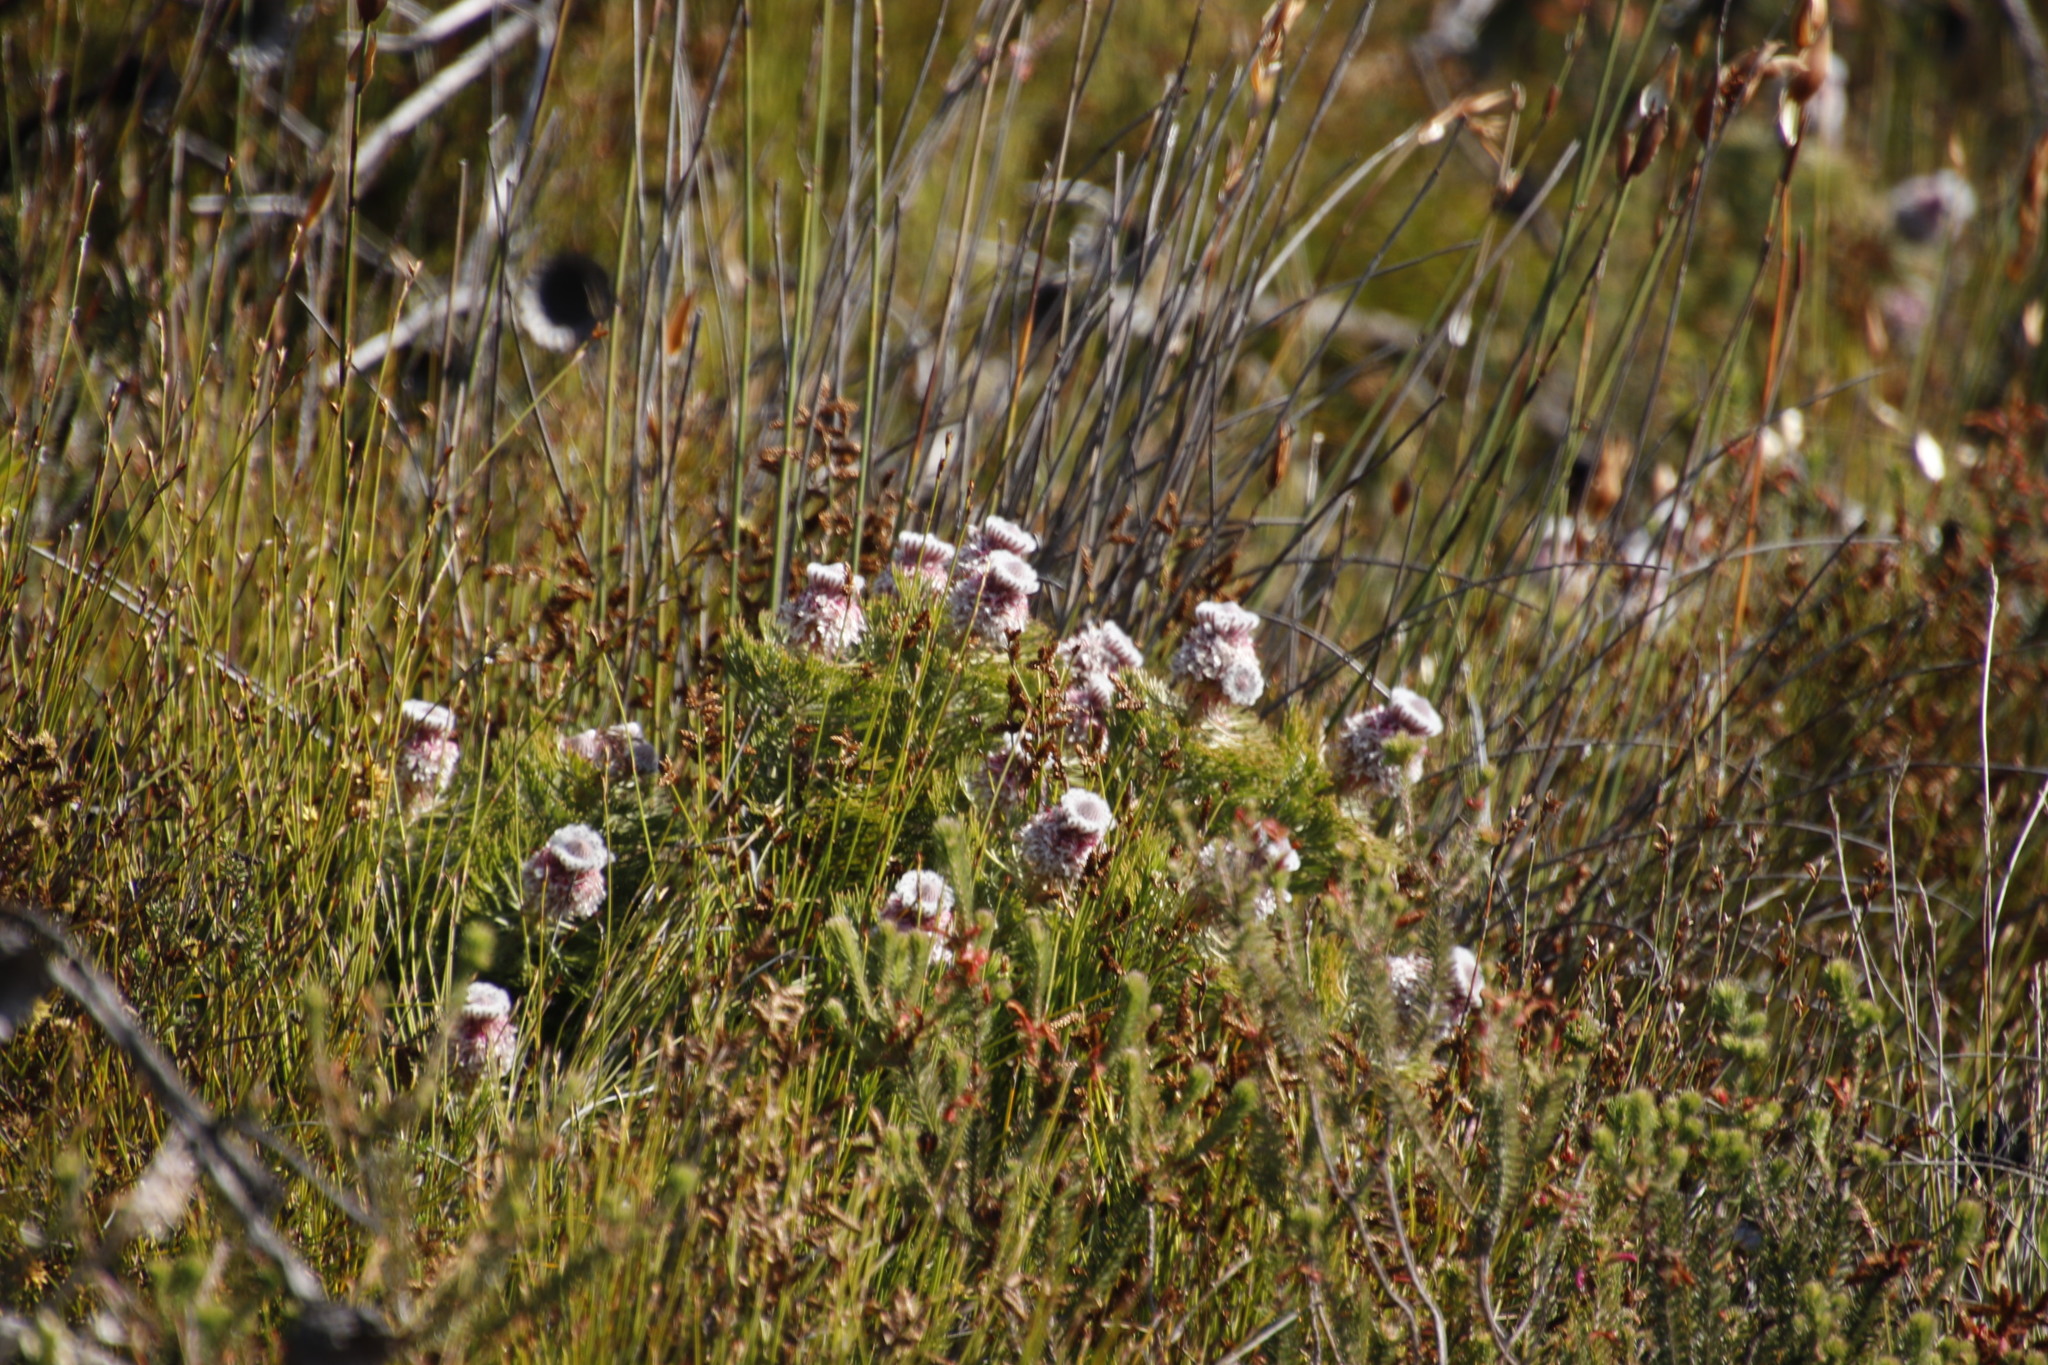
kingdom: Plantae
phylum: Tracheophyta
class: Magnoliopsida
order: Proteales
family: Proteaceae
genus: Serruria
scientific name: Serruria hirsuta
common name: Swartkops spiderhead
